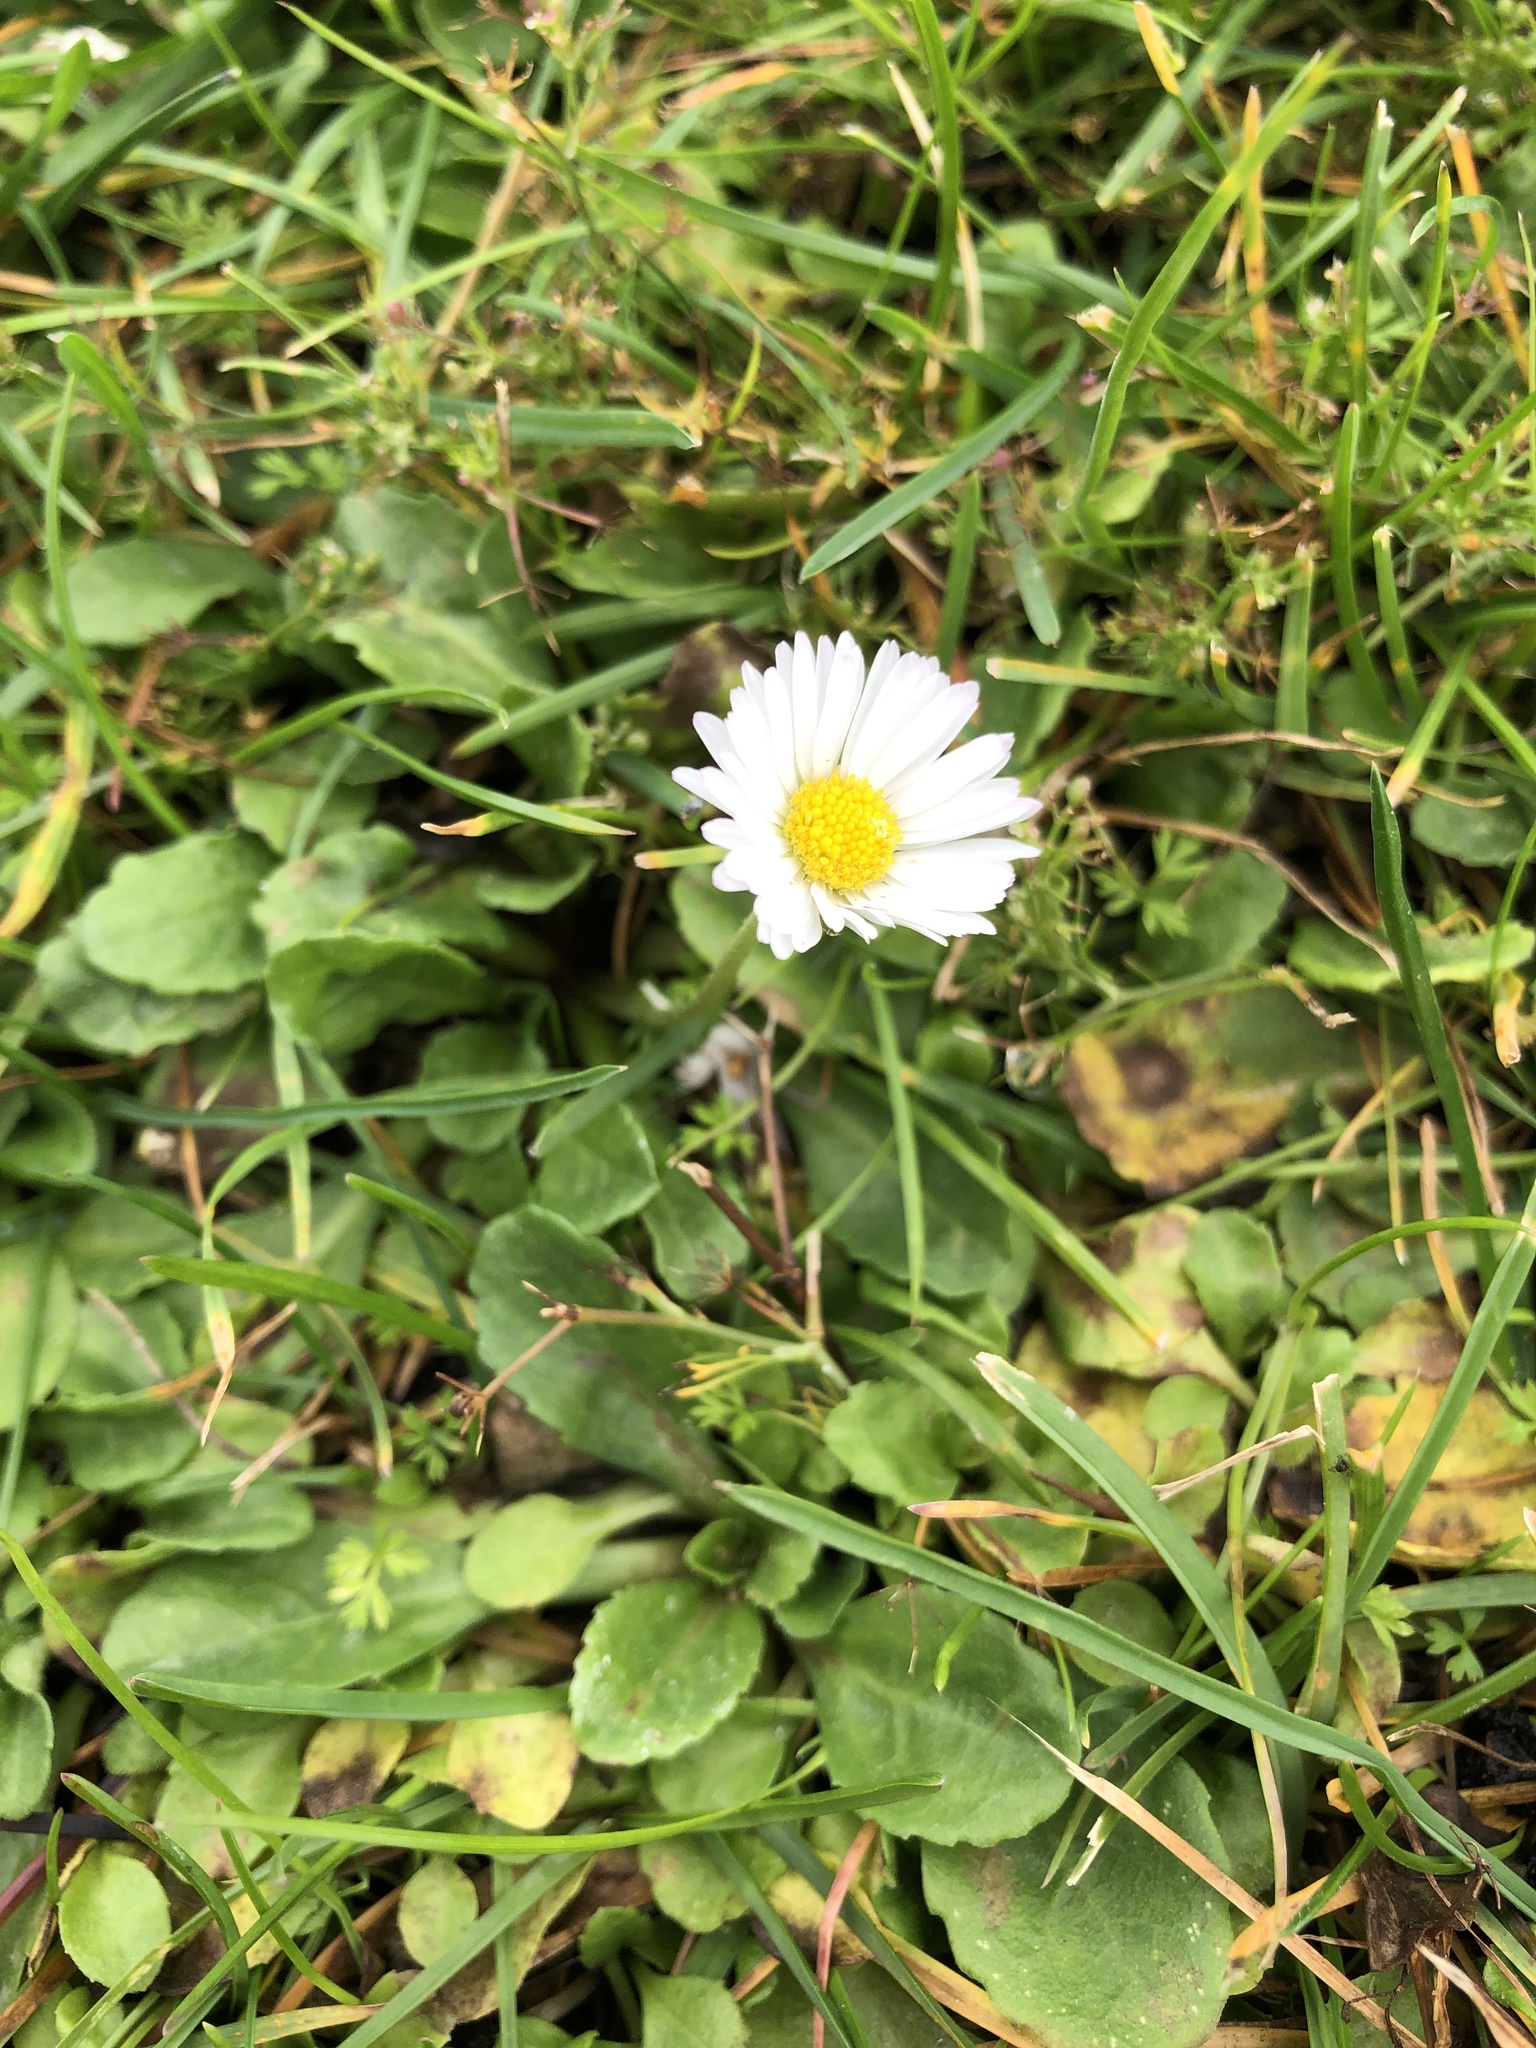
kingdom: Plantae
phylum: Tracheophyta
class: Magnoliopsida
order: Asterales
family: Asteraceae
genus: Bellis
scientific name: Bellis perennis
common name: Lawndaisy
